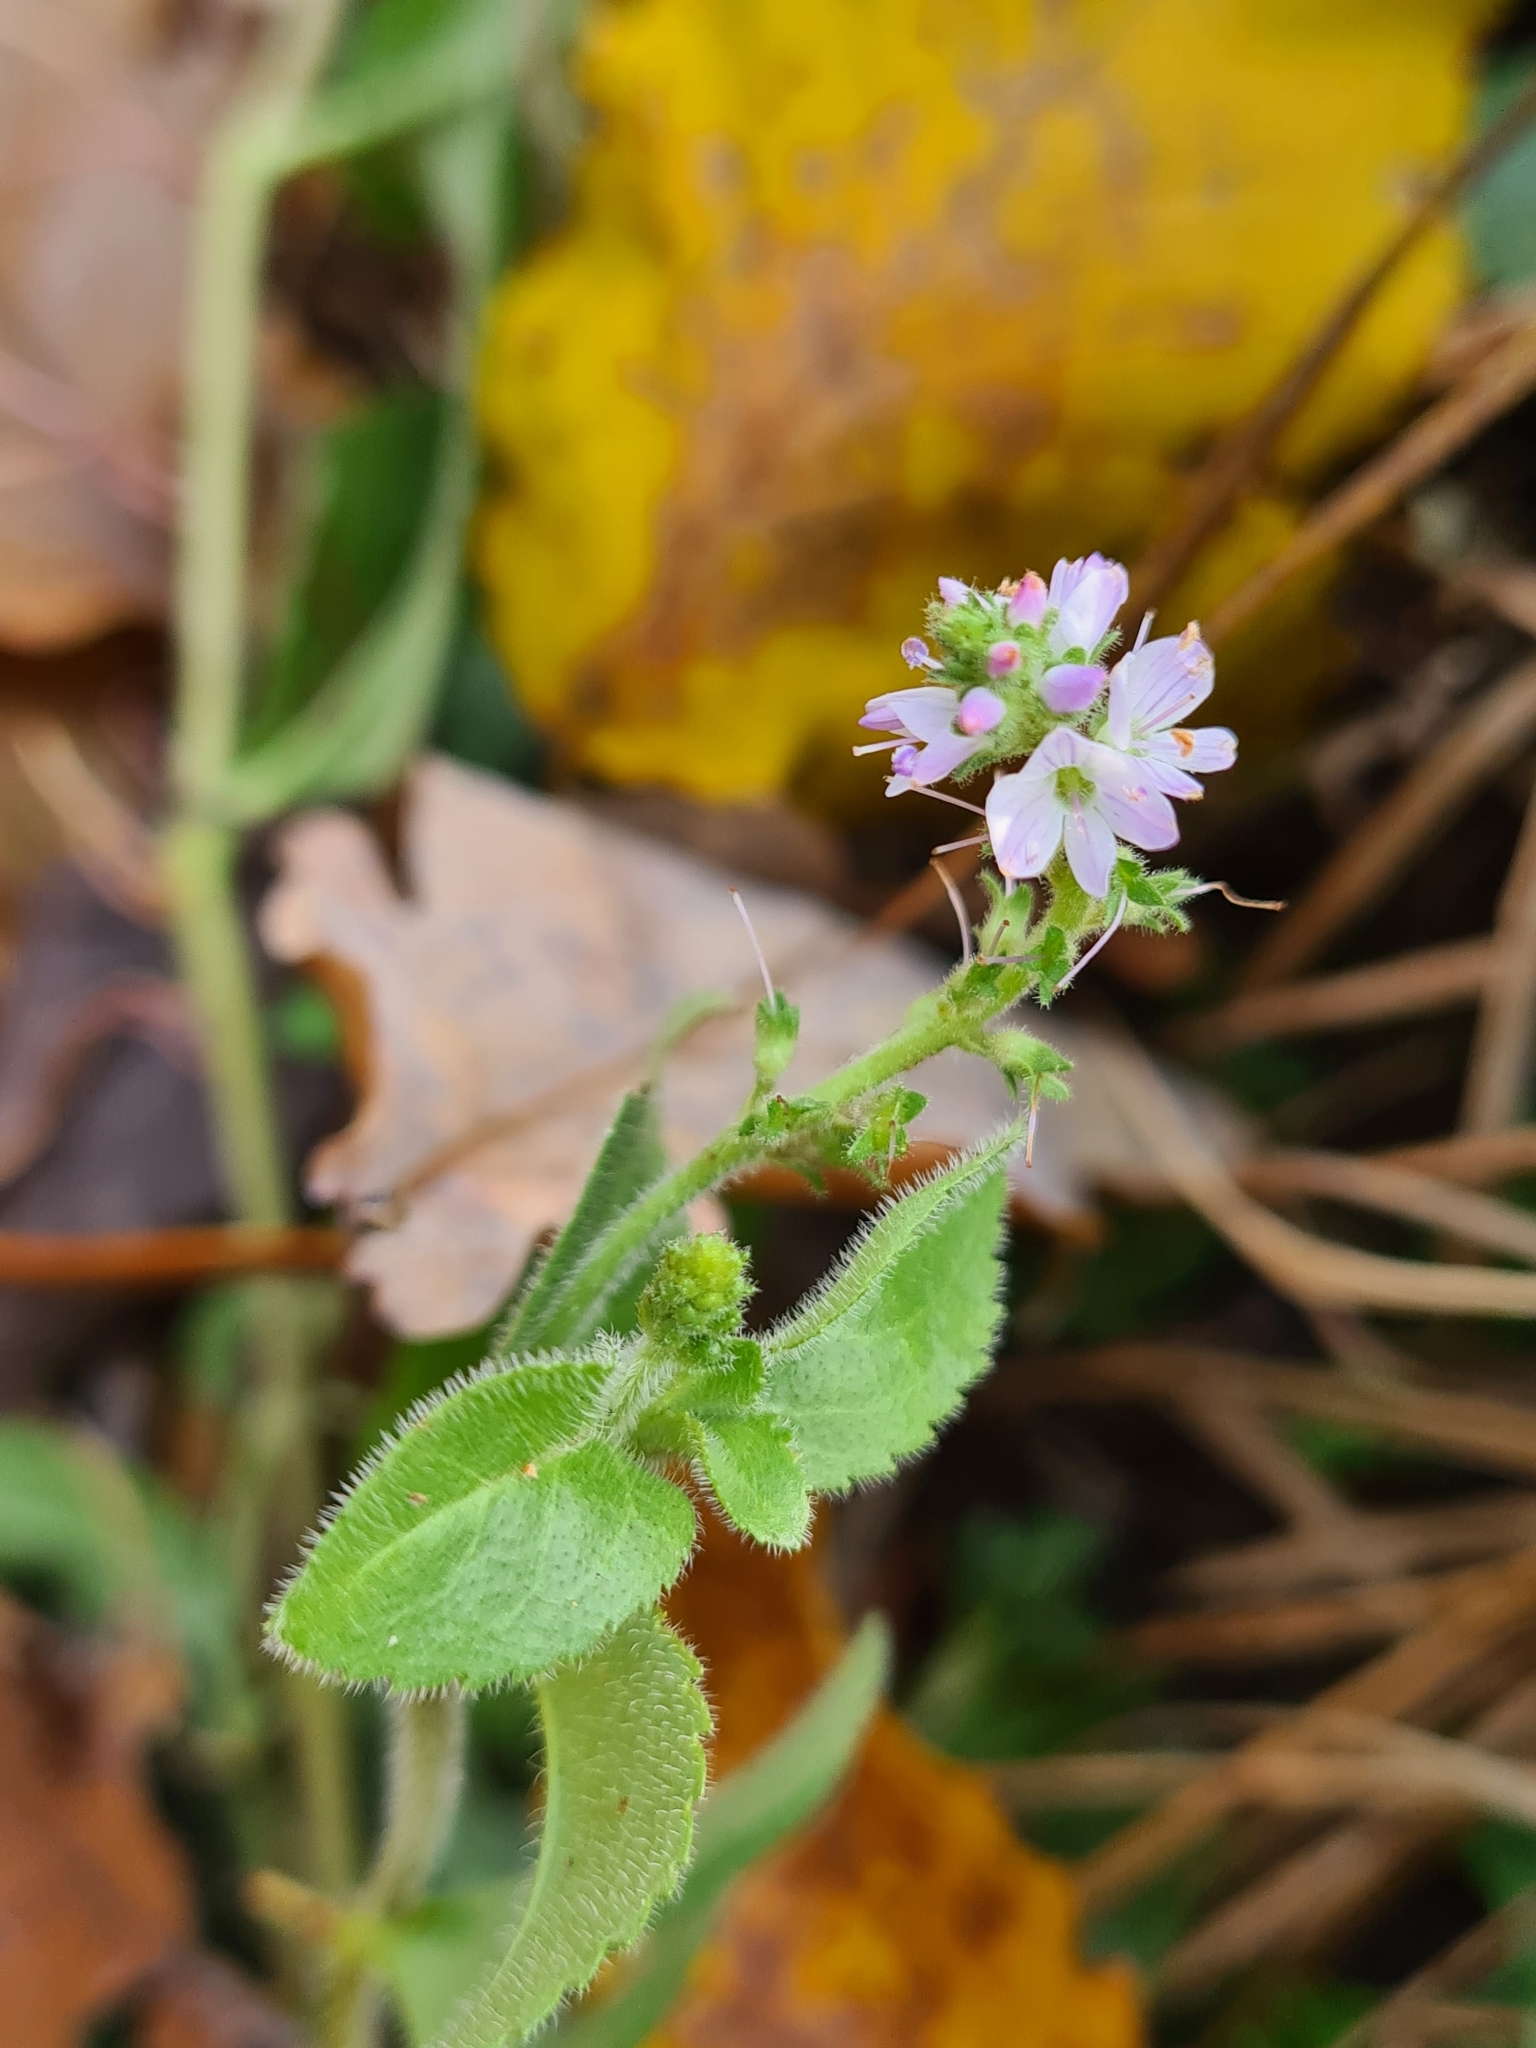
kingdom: Plantae
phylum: Tracheophyta
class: Magnoliopsida
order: Lamiales
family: Plantaginaceae
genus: Veronica
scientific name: Veronica officinalis
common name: Common speedwell
